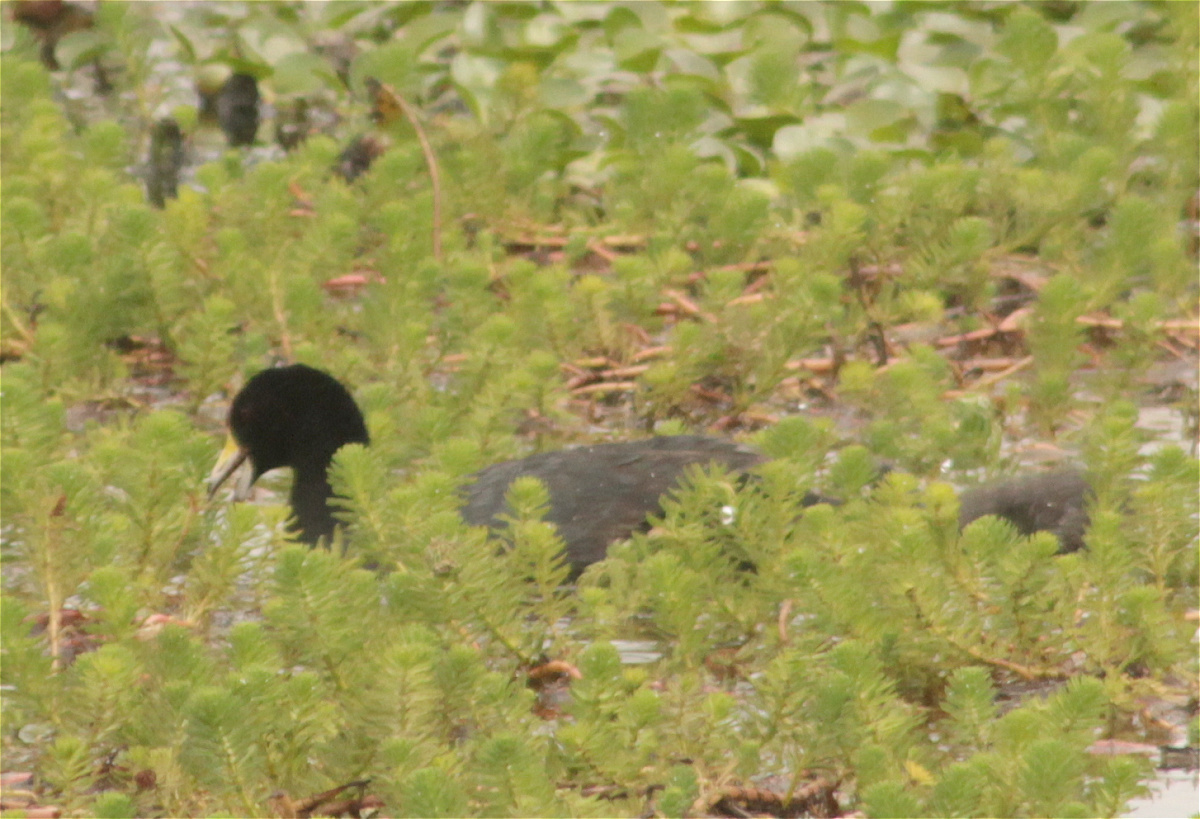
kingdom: Animalia
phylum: Chordata
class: Aves
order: Gruiformes
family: Rallidae
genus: Fulica
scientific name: Fulica americana
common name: American coot
